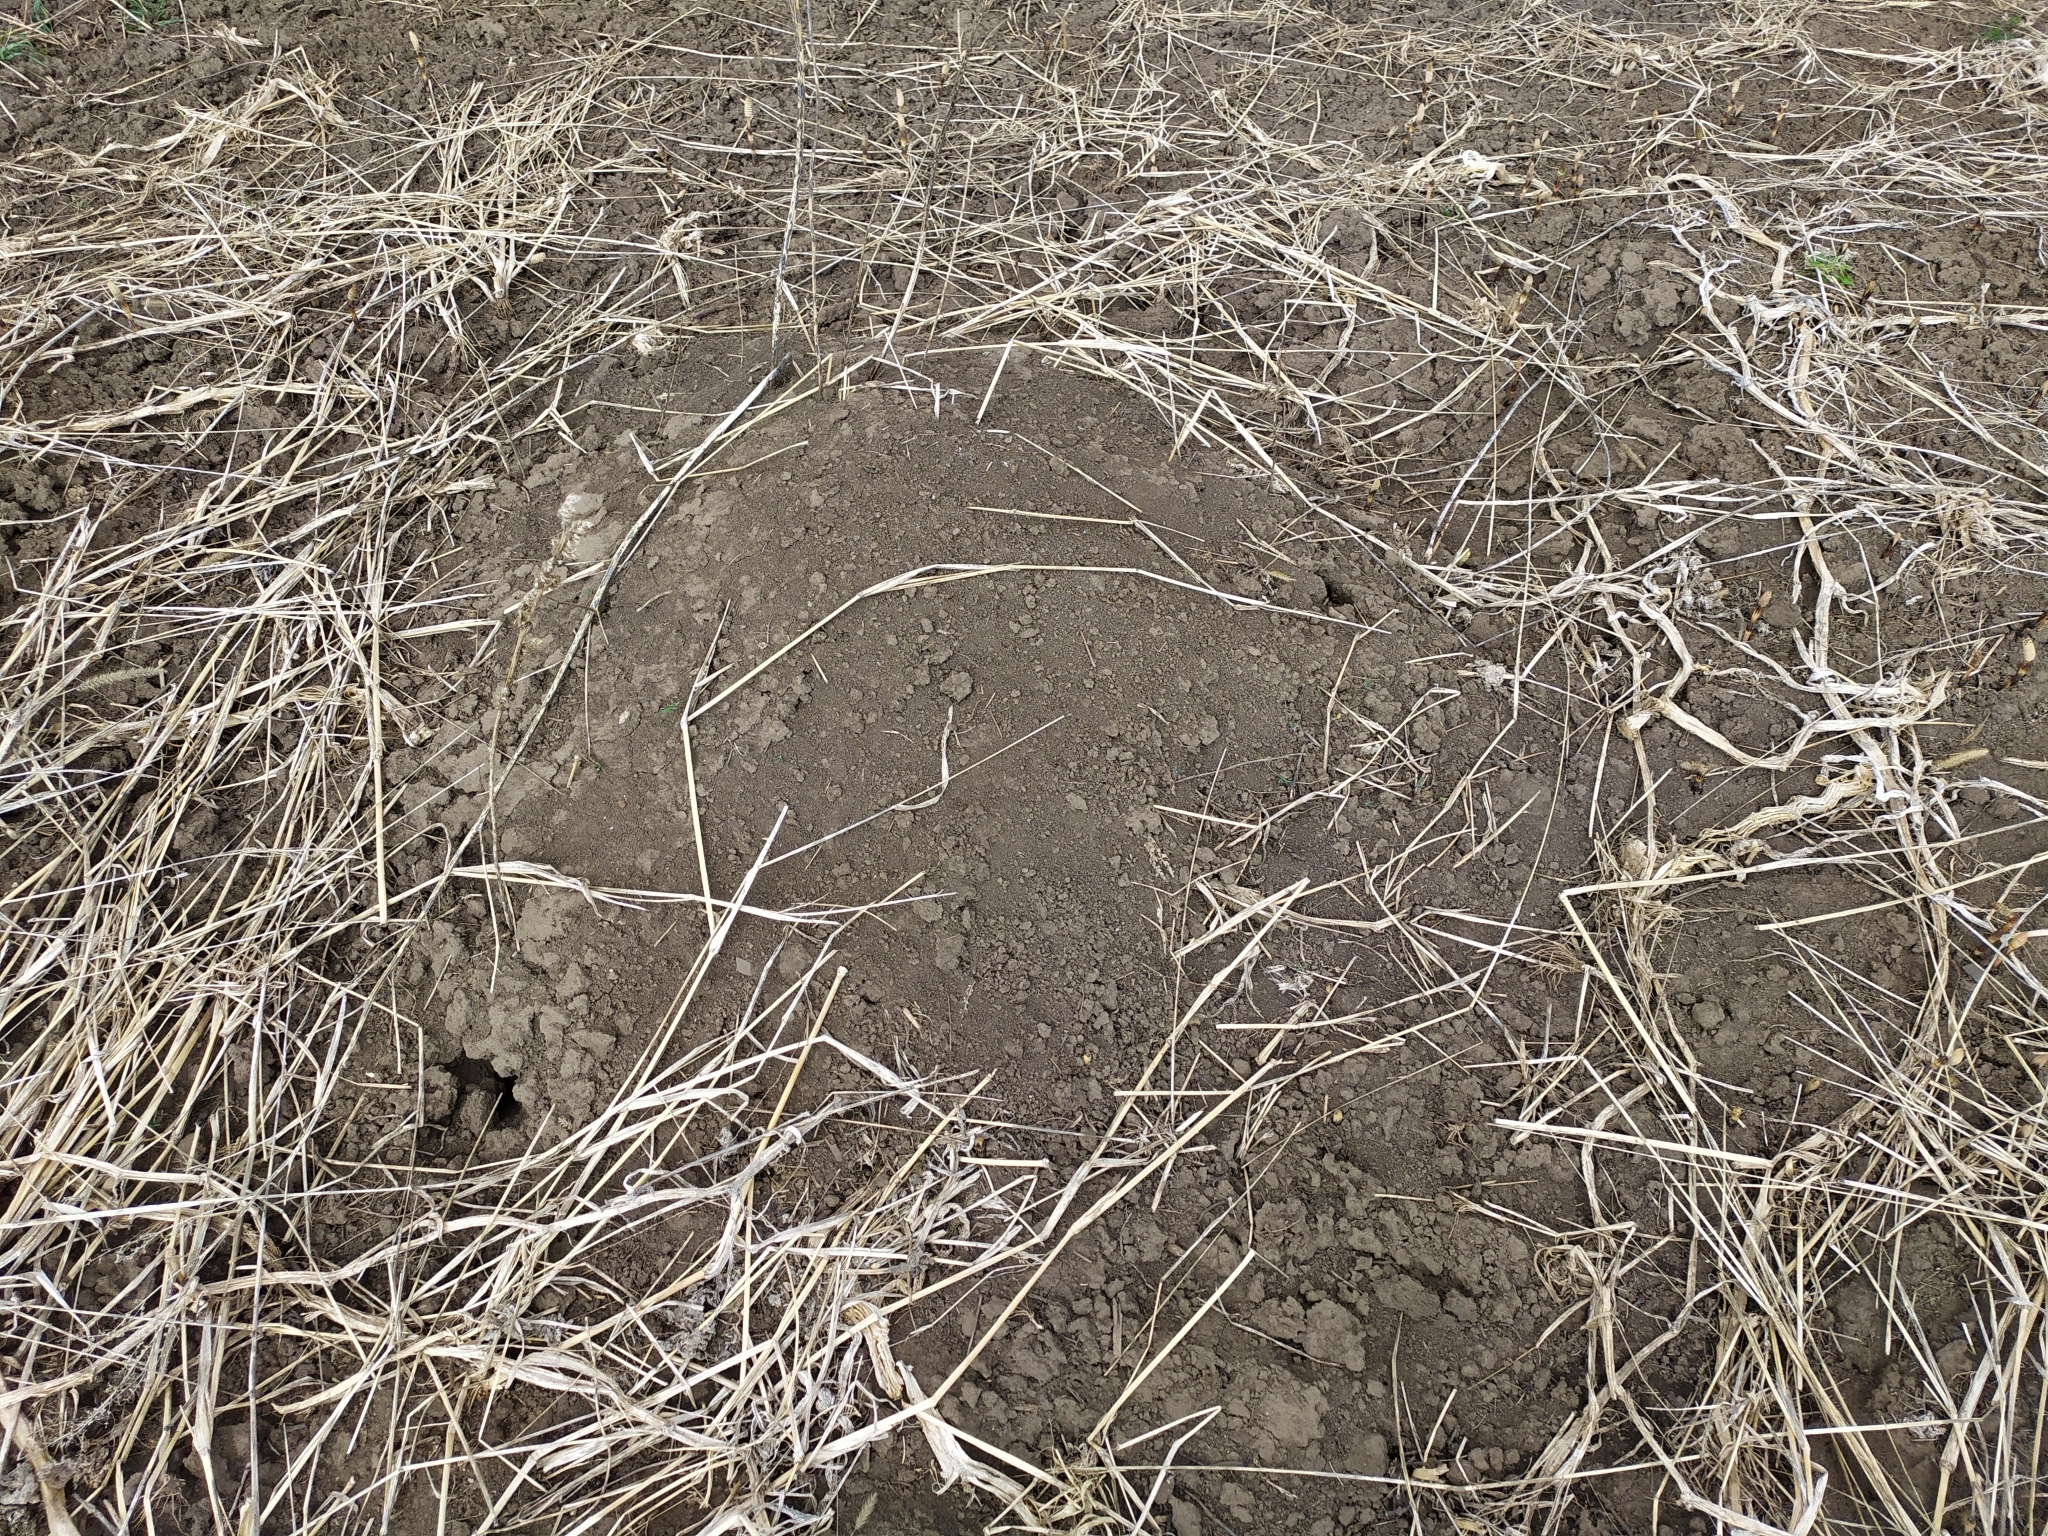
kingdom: Animalia
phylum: Chordata
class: Mammalia
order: Rodentia
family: Muridae
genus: Mus
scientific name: Mus spicilegus
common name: Mound-building mouse
